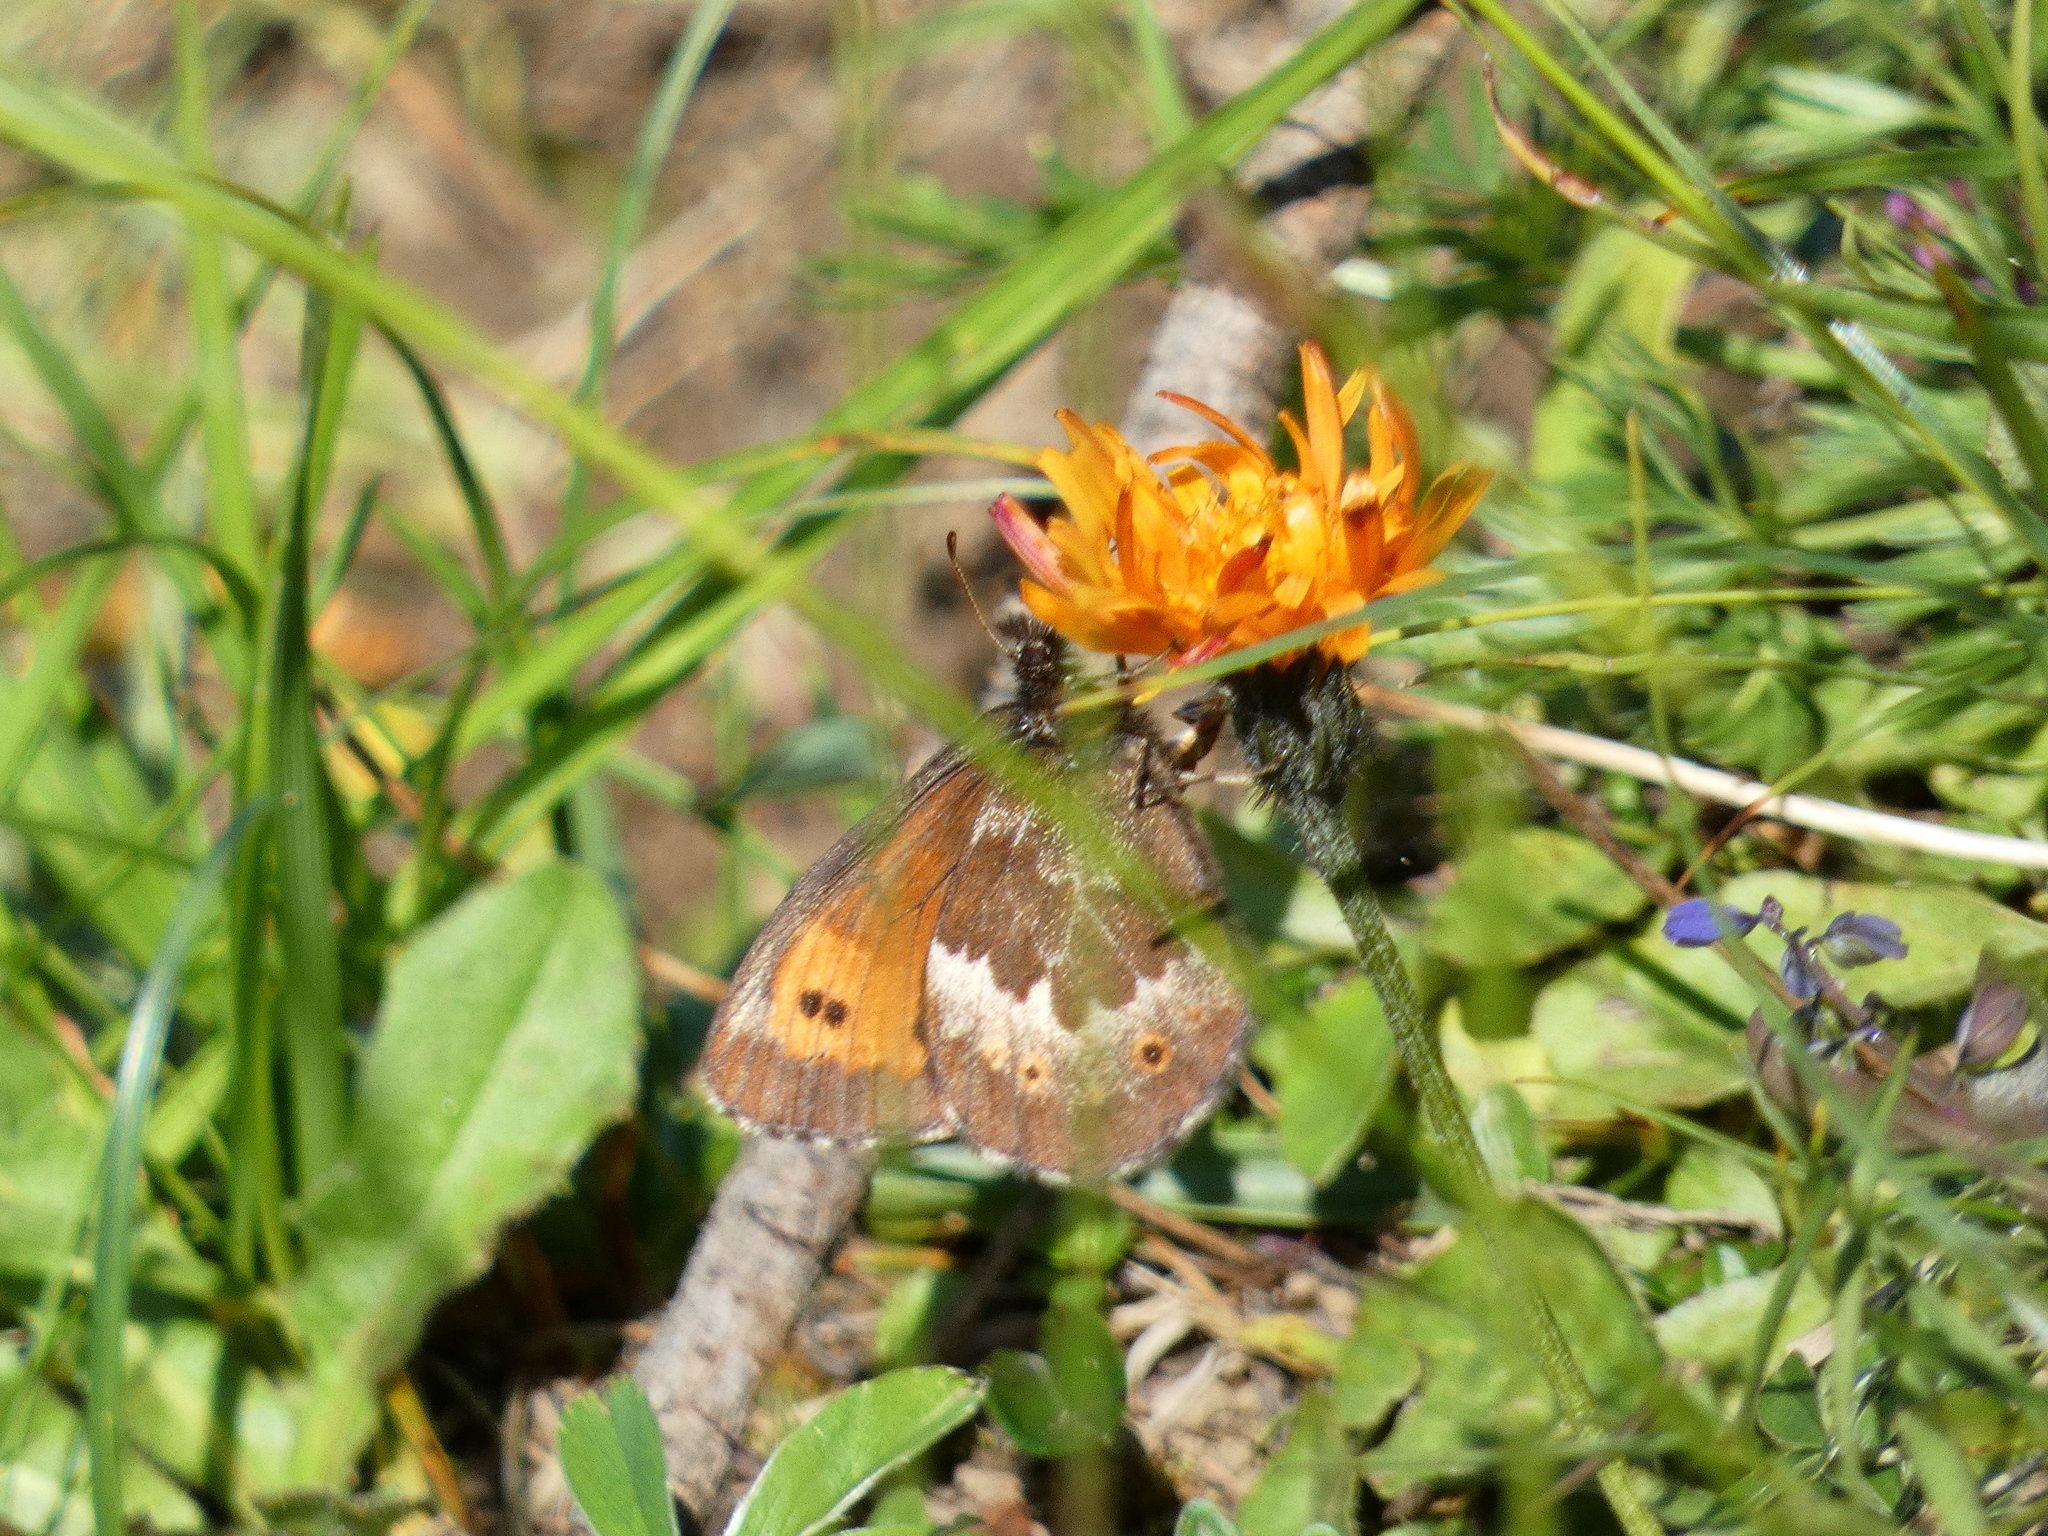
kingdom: Animalia
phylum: Arthropoda
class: Insecta
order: Lepidoptera
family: Nymphalidae
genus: Erebia
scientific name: Erebia euryale
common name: Large ringlet
